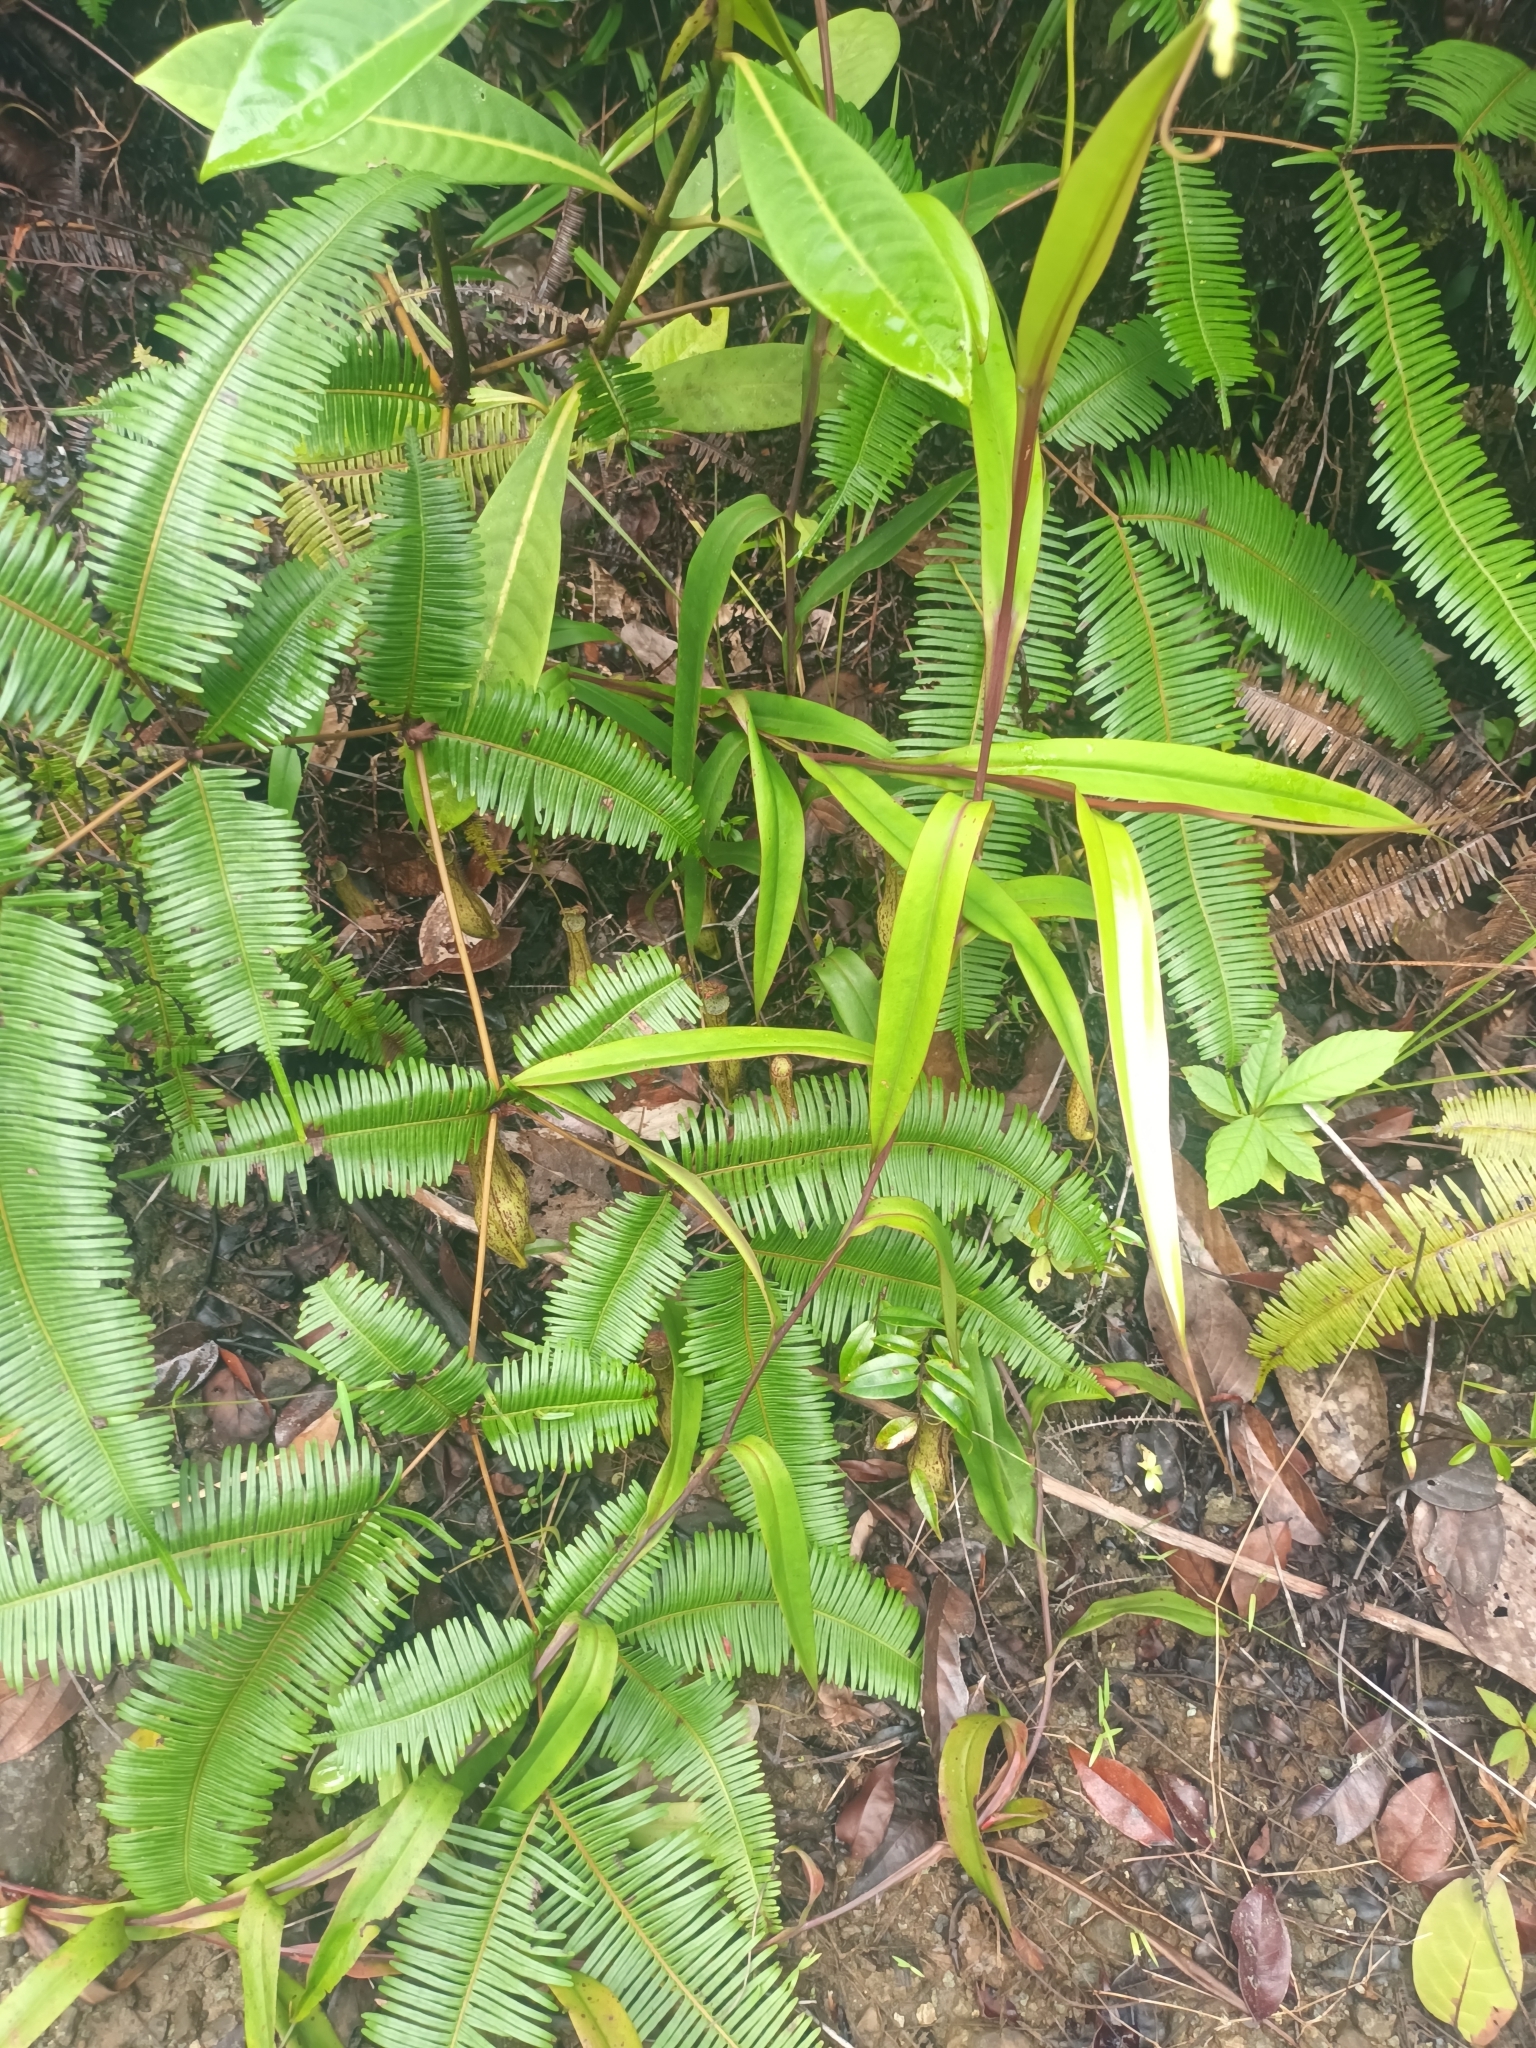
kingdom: Plantae
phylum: Tracheophyta
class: Magnoliopsida
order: Caryophyllales
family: Nepenthaceae
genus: Nepenthes
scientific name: Nepenthes gracilis
